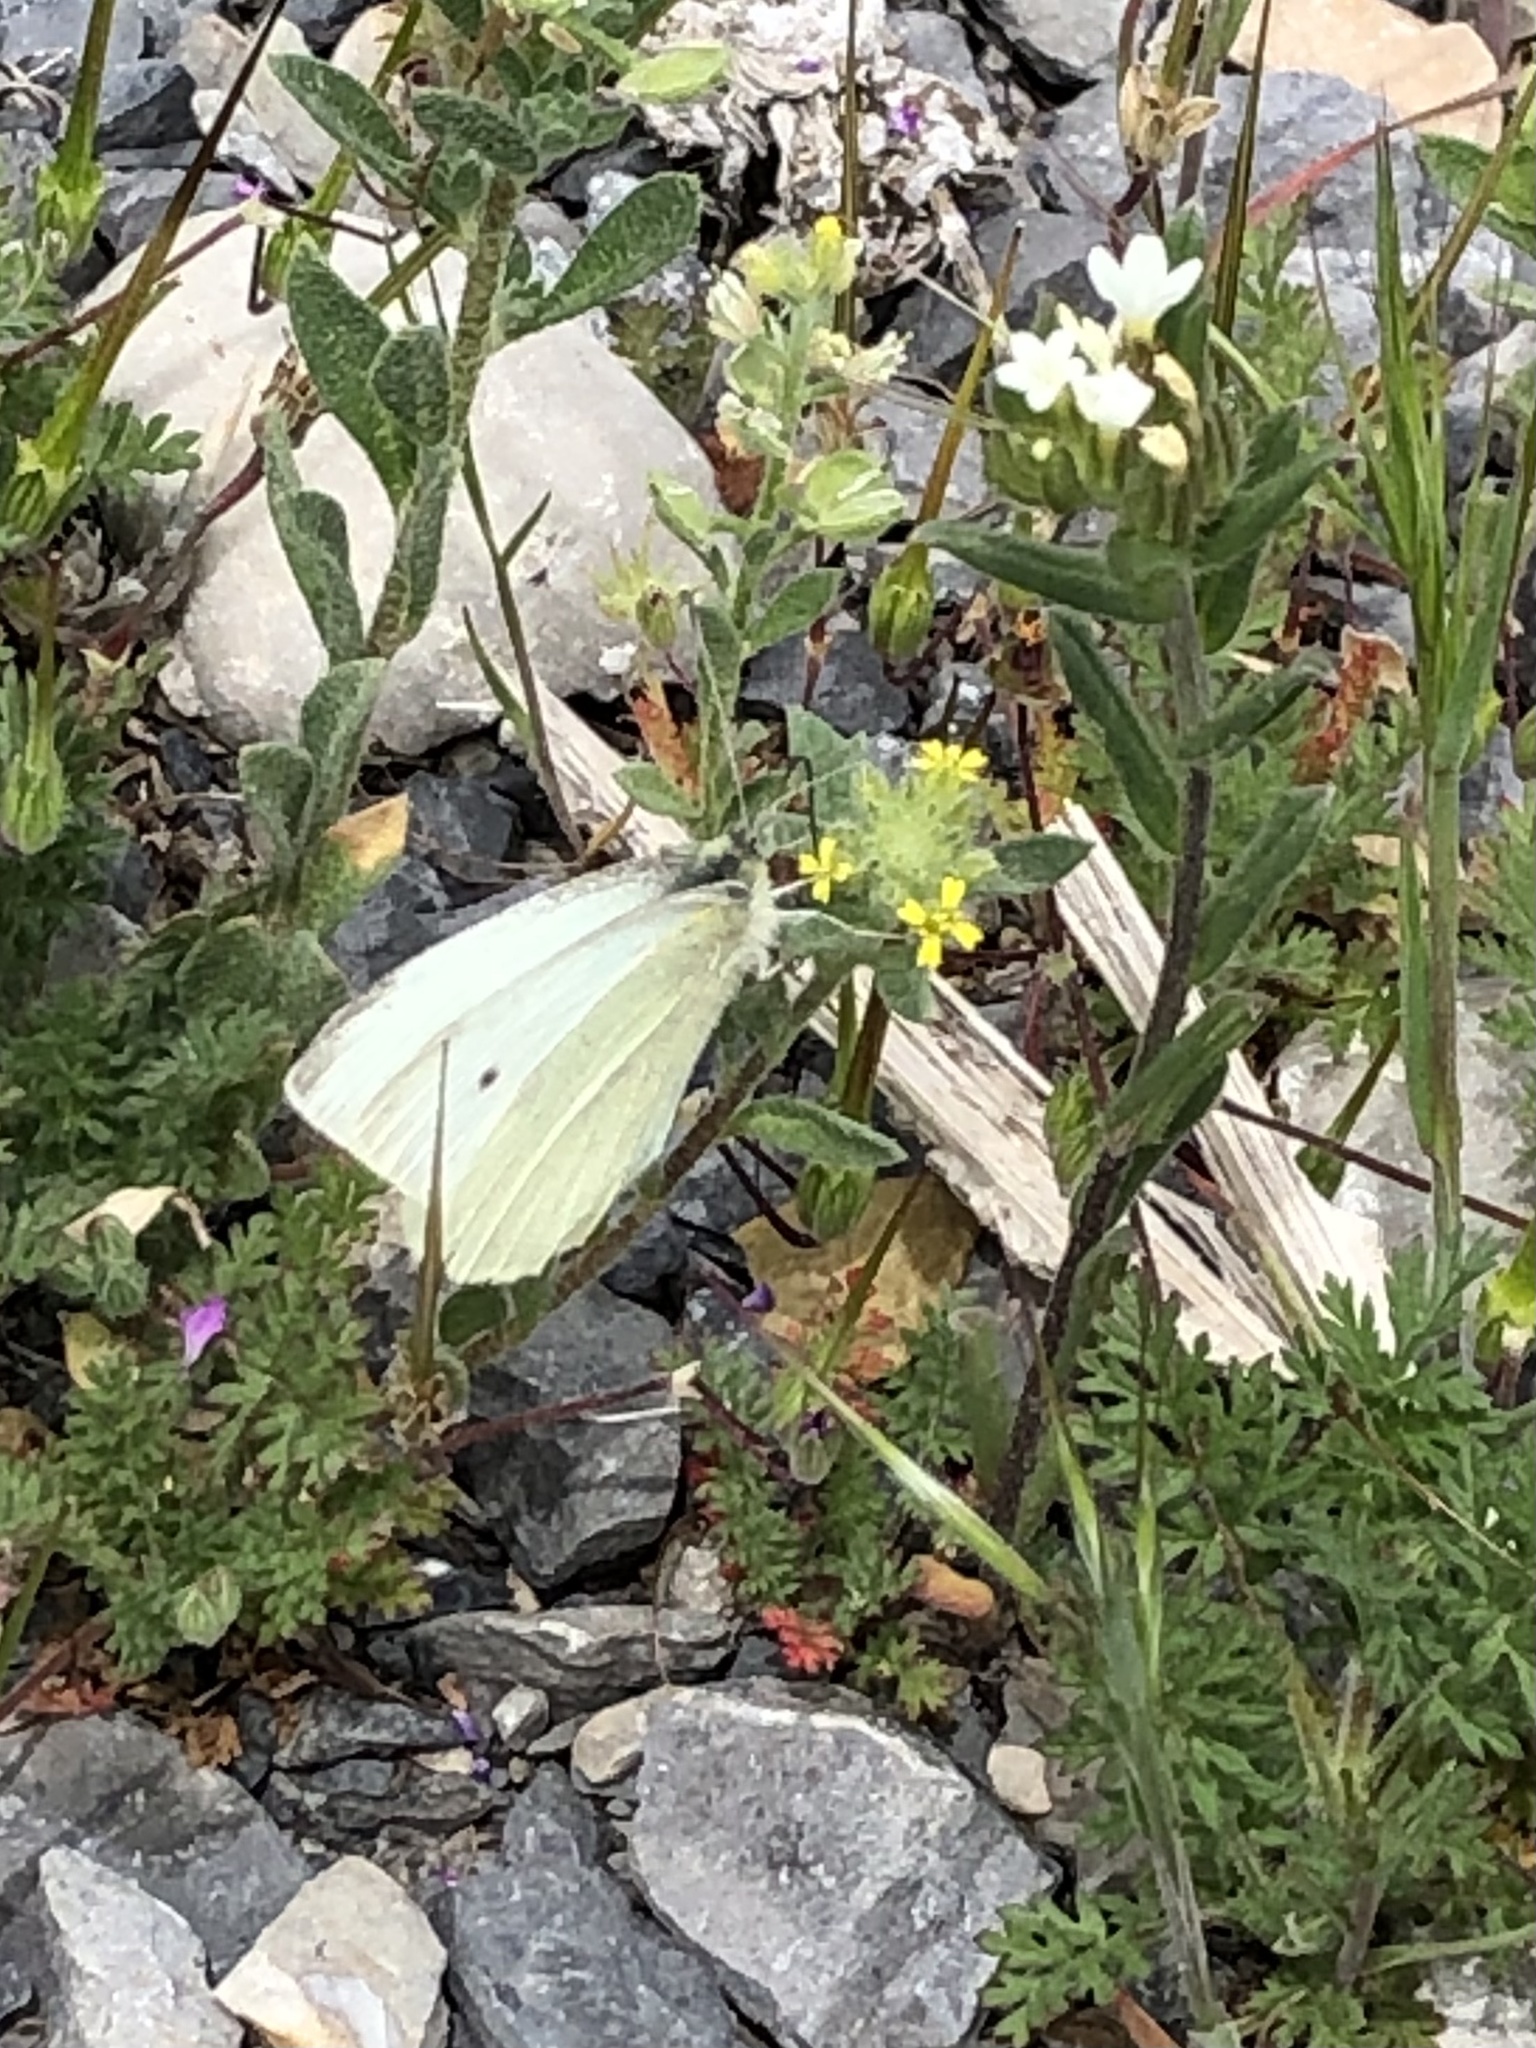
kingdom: Animalia
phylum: Arthropoda
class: Insecta
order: Lepidoptera
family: Pieridae
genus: Pieris
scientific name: Pieris rapae
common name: Small white
